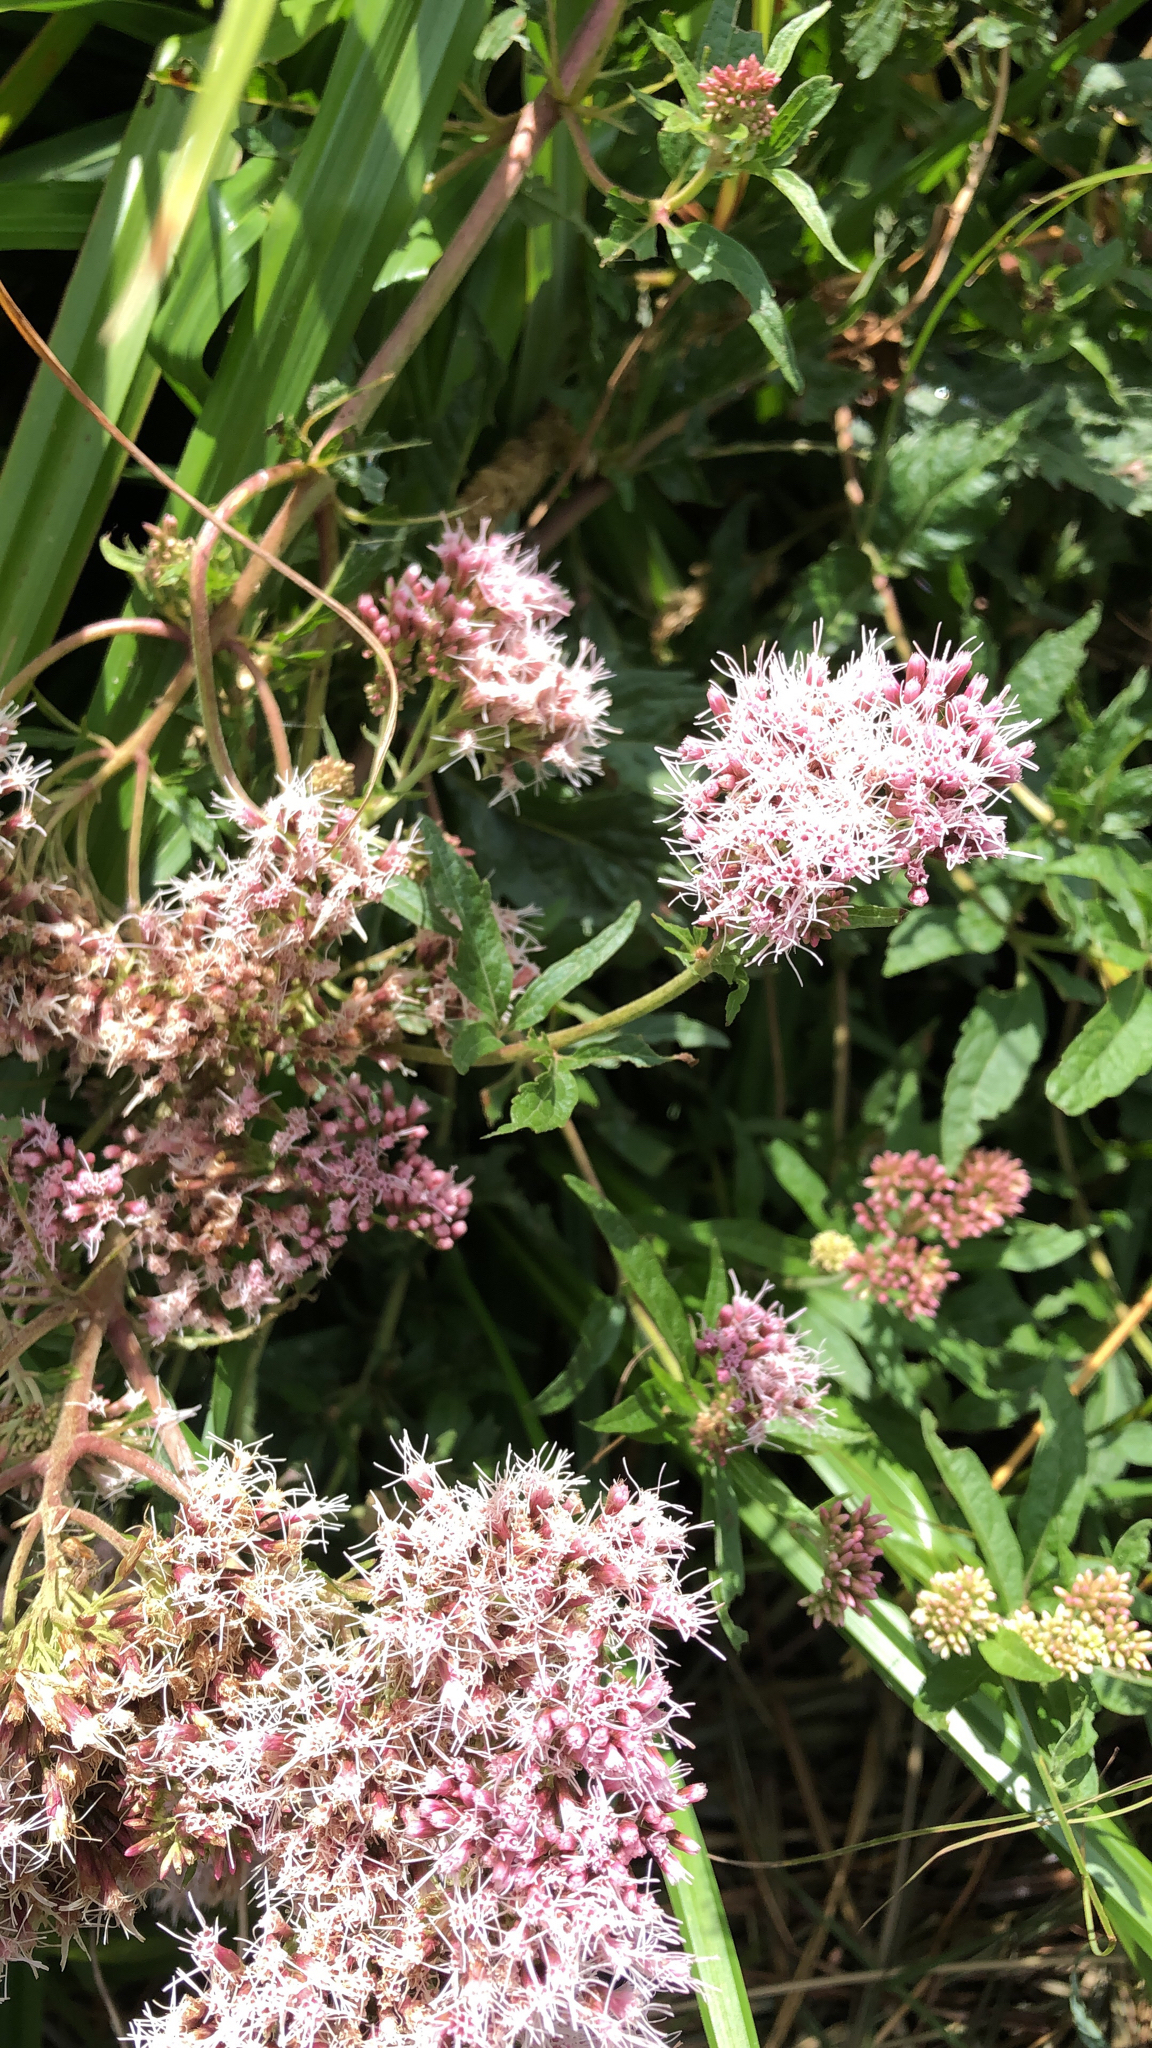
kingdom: Plantae
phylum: Tracheophyta
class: Magnoliopsida
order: Asterales
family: Asteraceae
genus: Eupatorium
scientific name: Eupatorium cannabinum
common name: Hemp-agrimony
